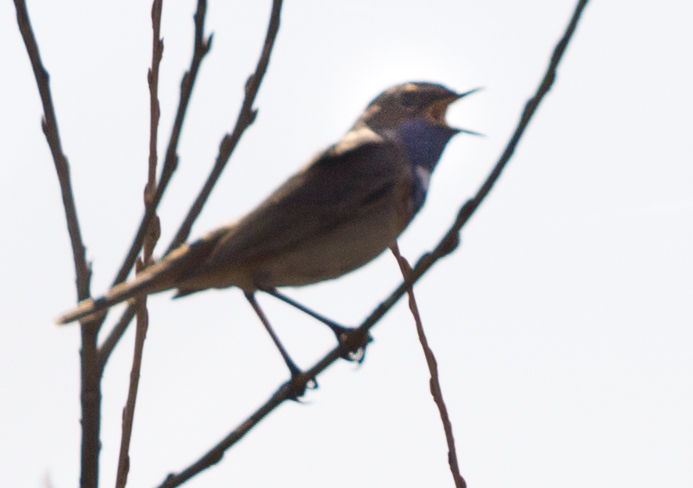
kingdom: Animalia
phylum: Chordata
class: Aves
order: Passeriformes
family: Muscicapidae
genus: Luscinia
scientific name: Luscinia svecica
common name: Bluethroat
